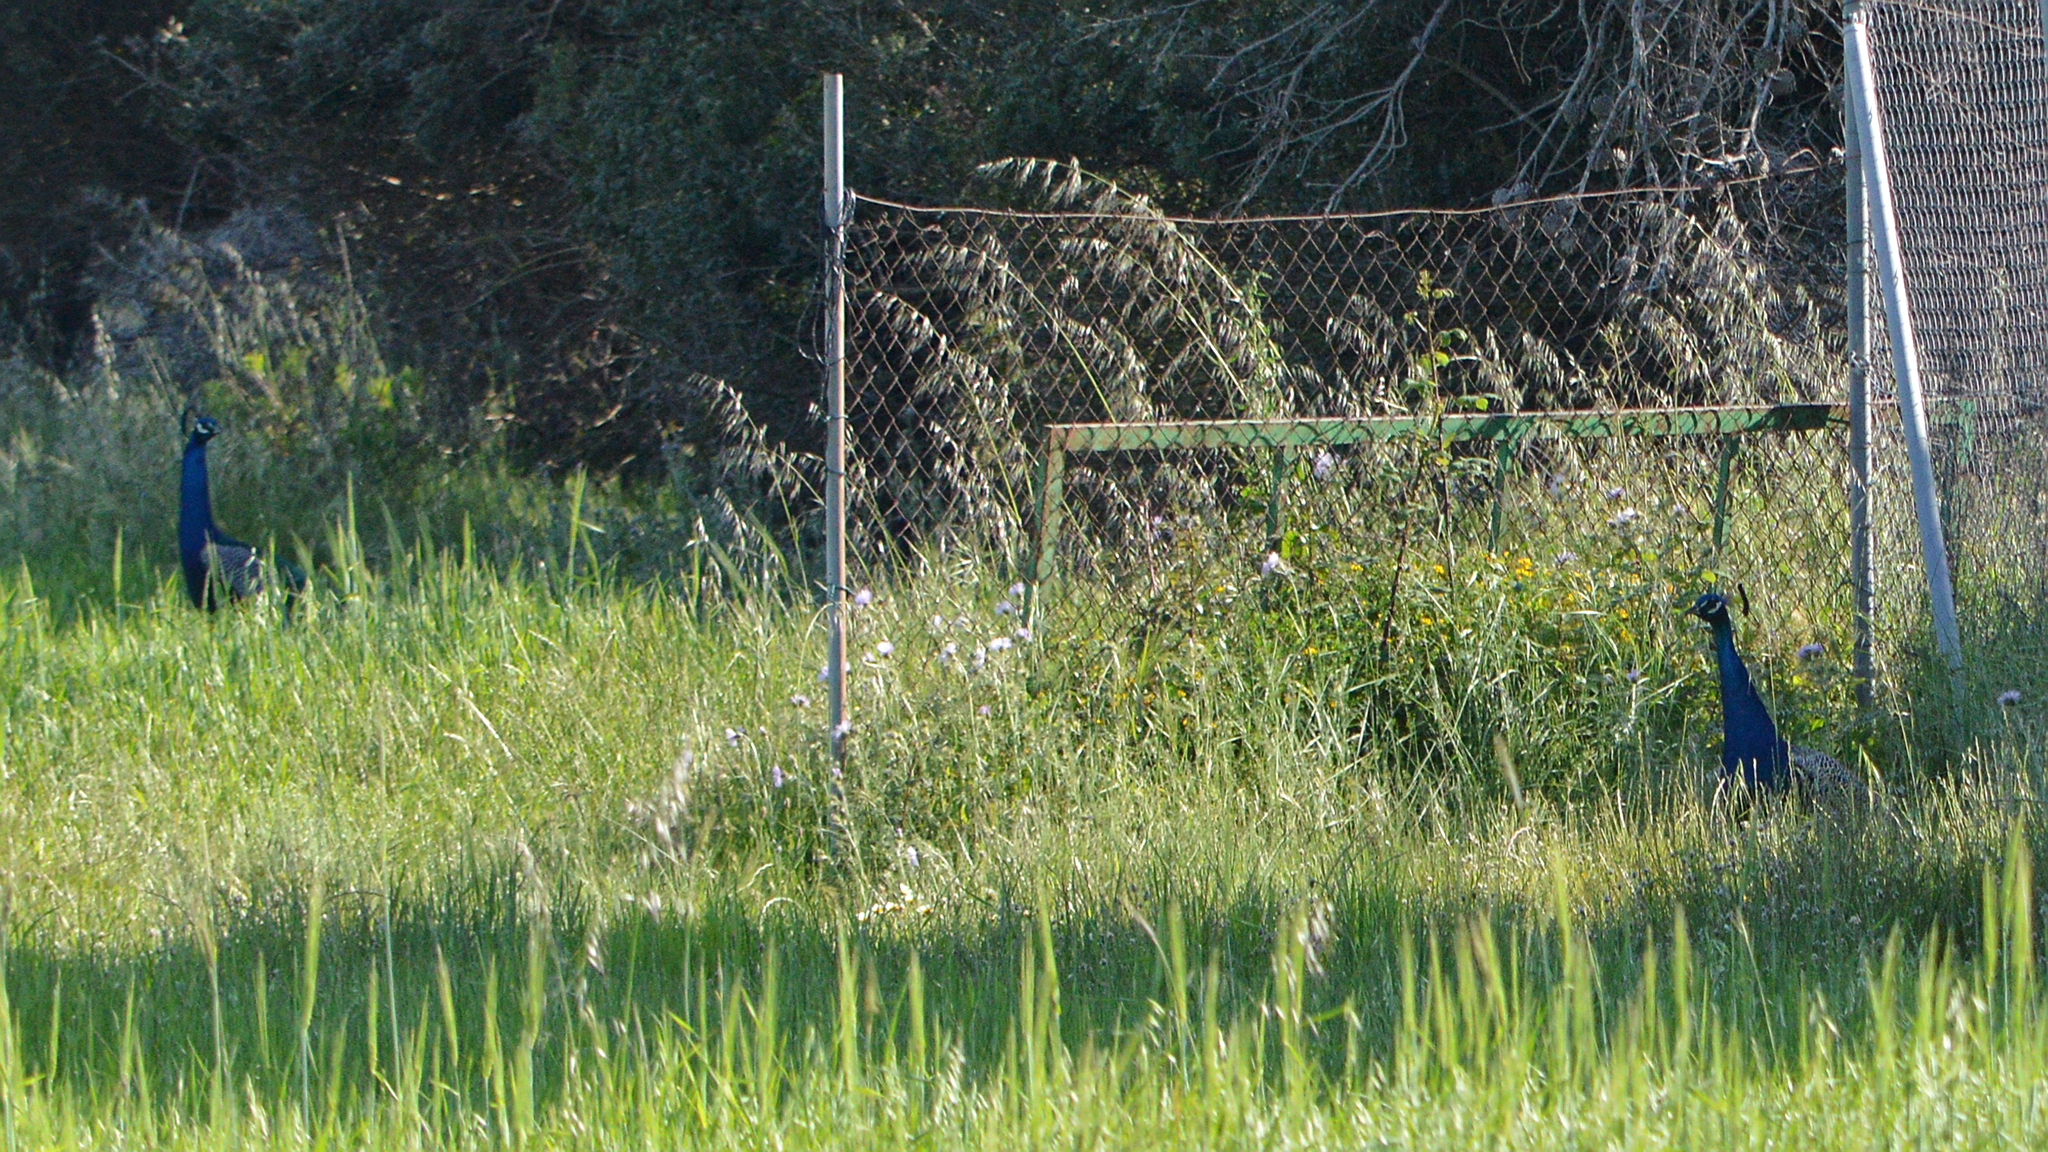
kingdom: Animalia
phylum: Chordata
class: Aves
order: Galliformes
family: Phasianidae
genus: Pavo
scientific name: Pavo cristatus
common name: Indian peafowl
